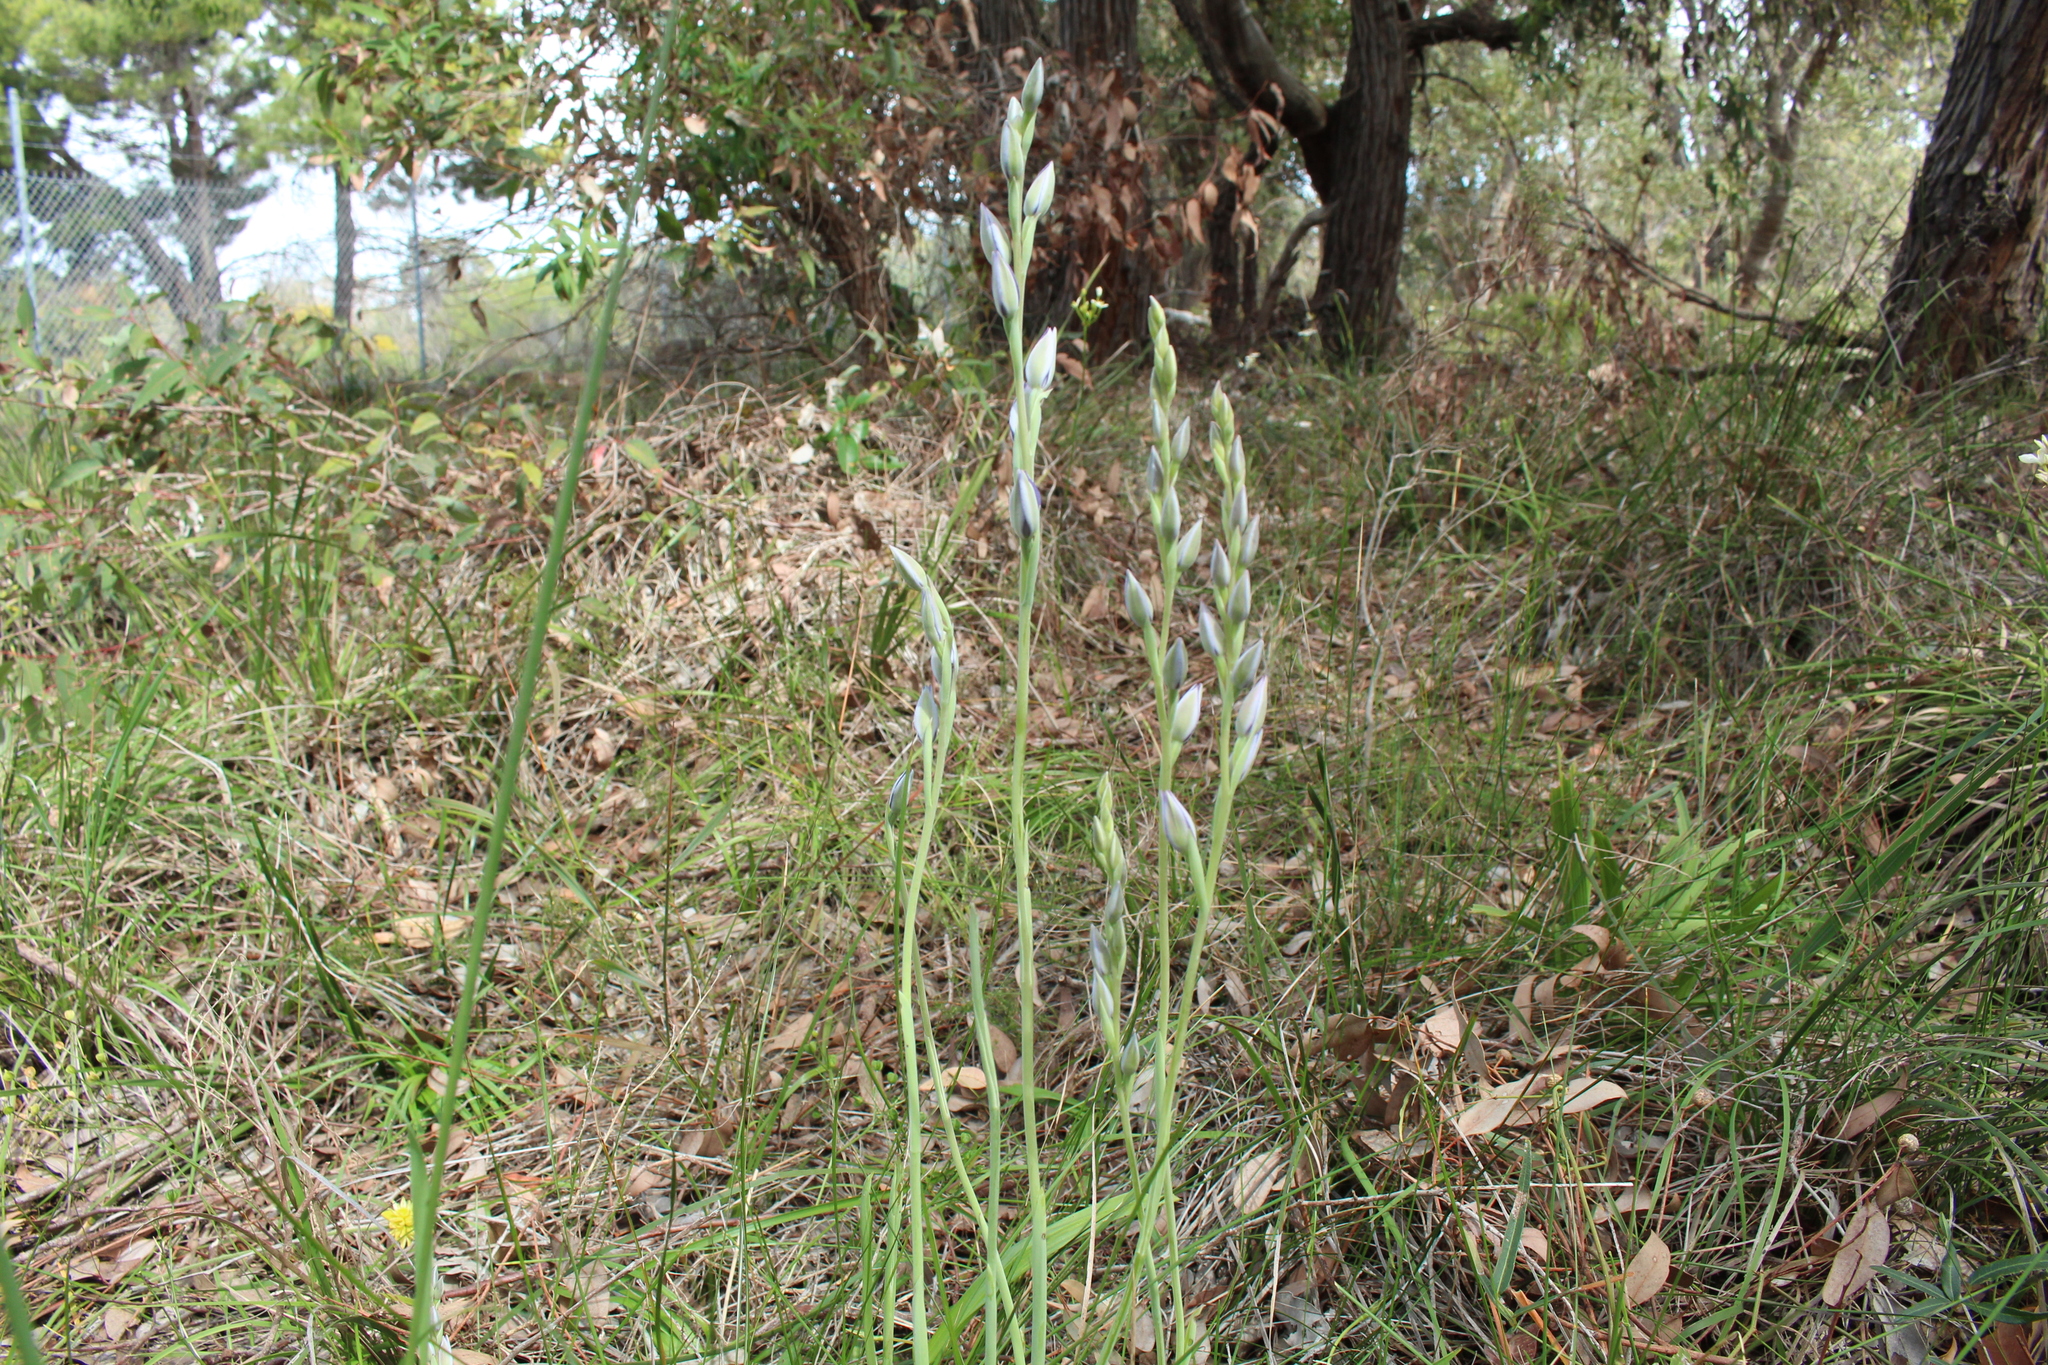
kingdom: Plantae
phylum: Tracheophyta
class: Liliopsida
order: Asparagales
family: Orchidaceae
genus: Thelymitra
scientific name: Thelymitra macrophylla
